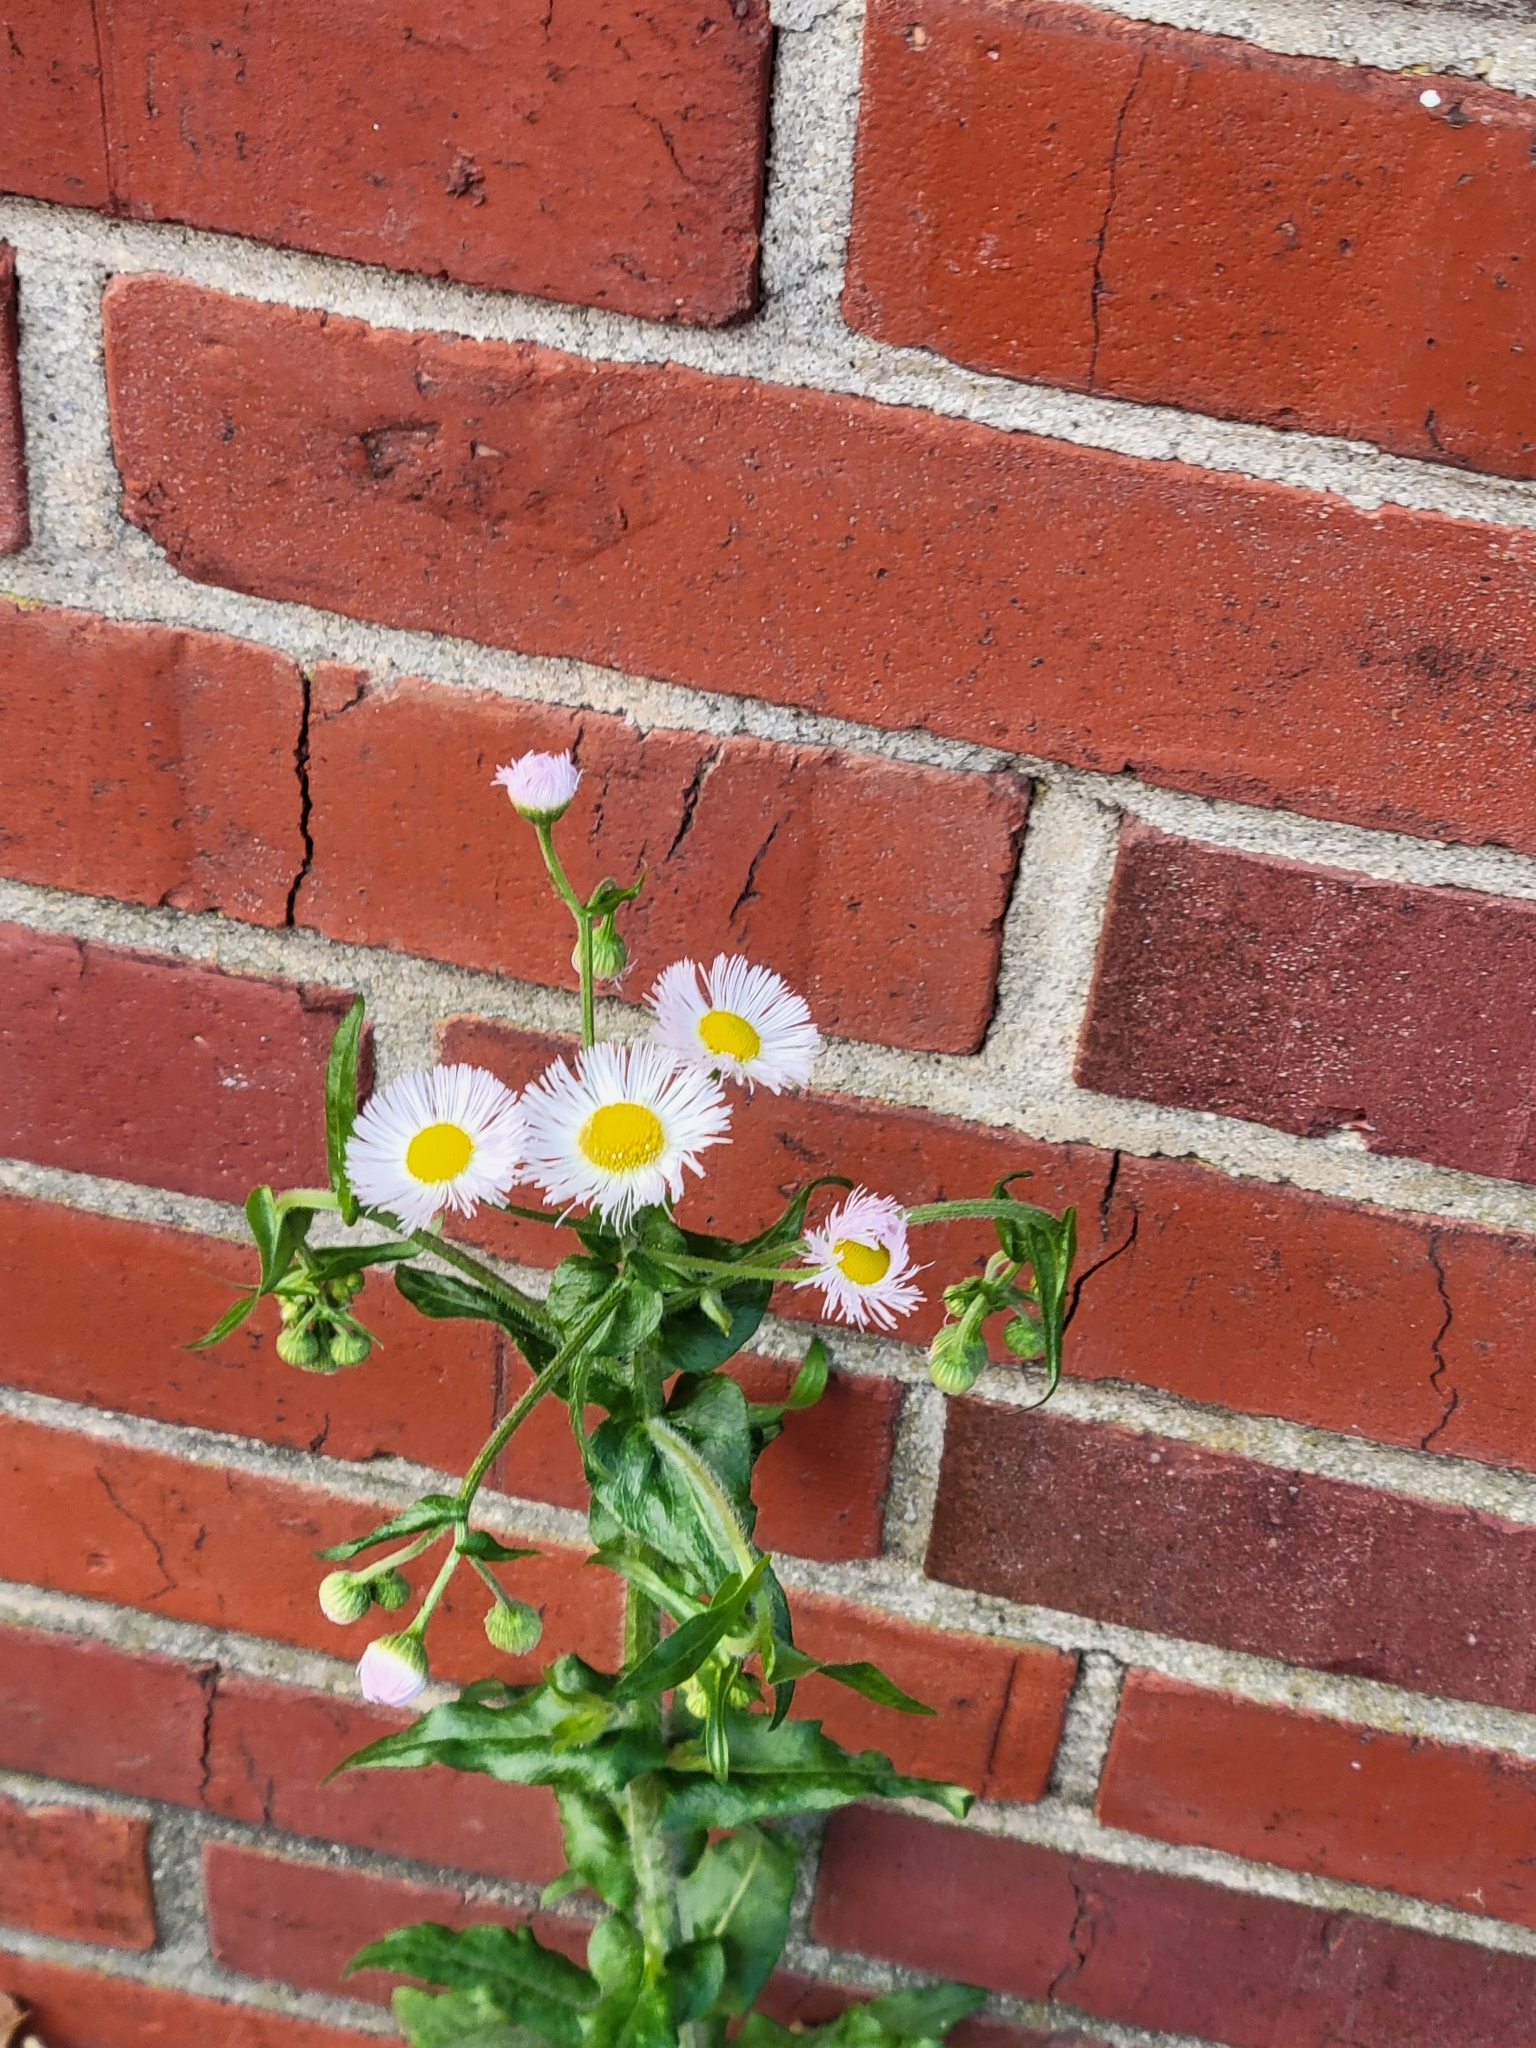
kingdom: Plantae
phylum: Tracheophyta
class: Magnoliopsida
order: Asterales
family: Asteraceae
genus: Erigeron
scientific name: Erigeron philadelphicus
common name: Robin's-plantain
